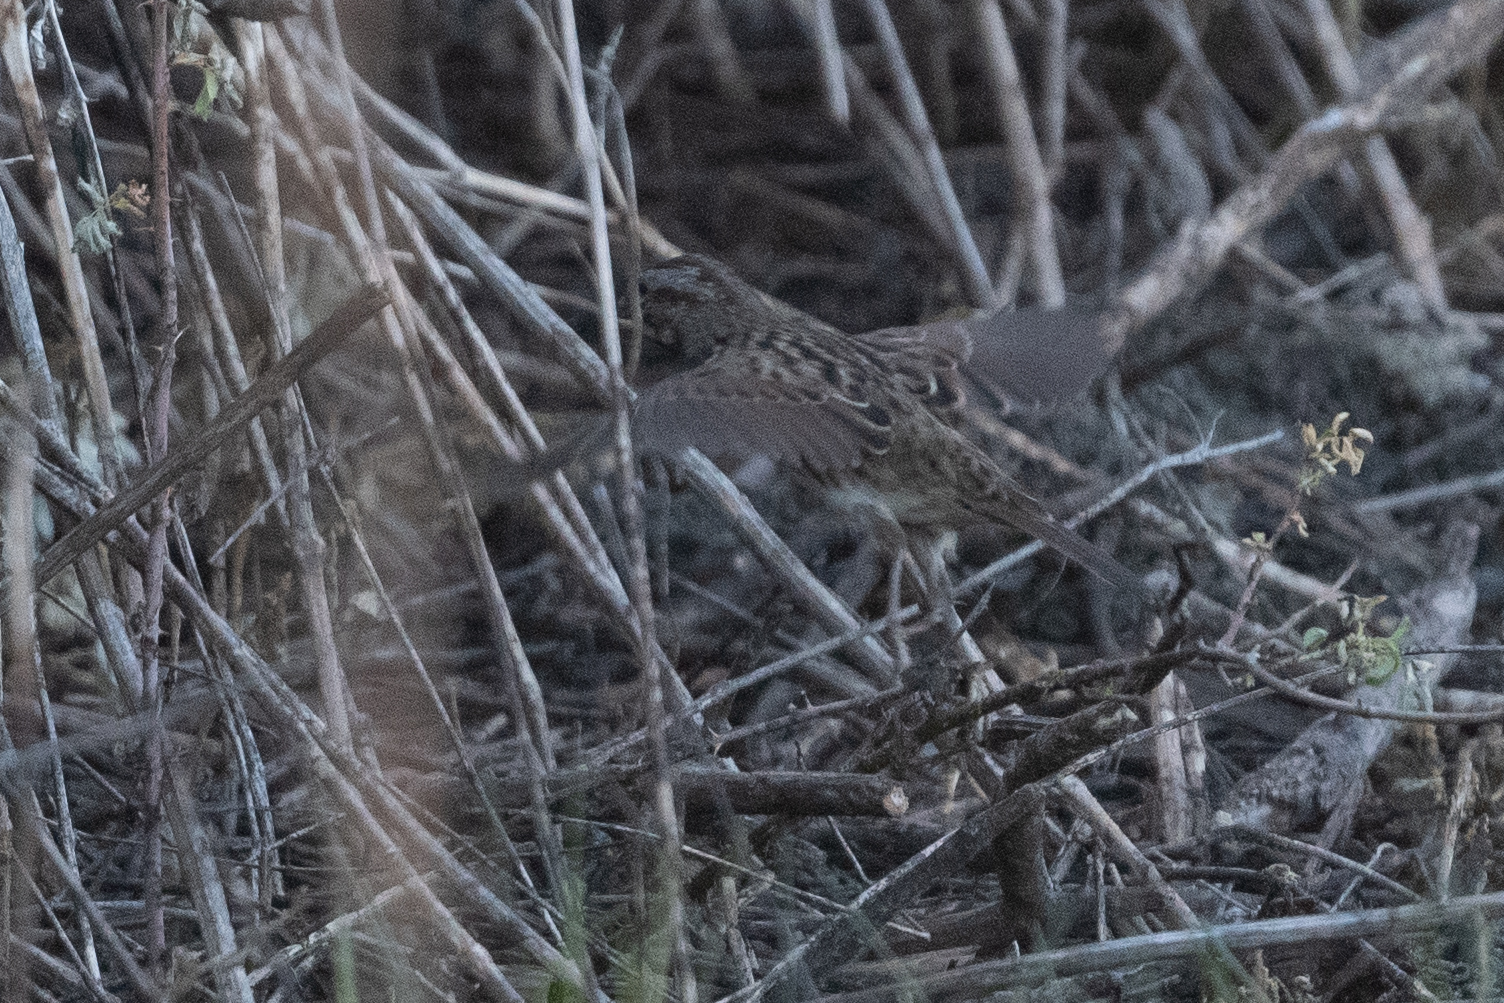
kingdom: Animalia
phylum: Chordata
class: Aves
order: Passeriformes
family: Passerellidae
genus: Melospiza
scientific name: Melospiza melodia
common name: Song sparrow
